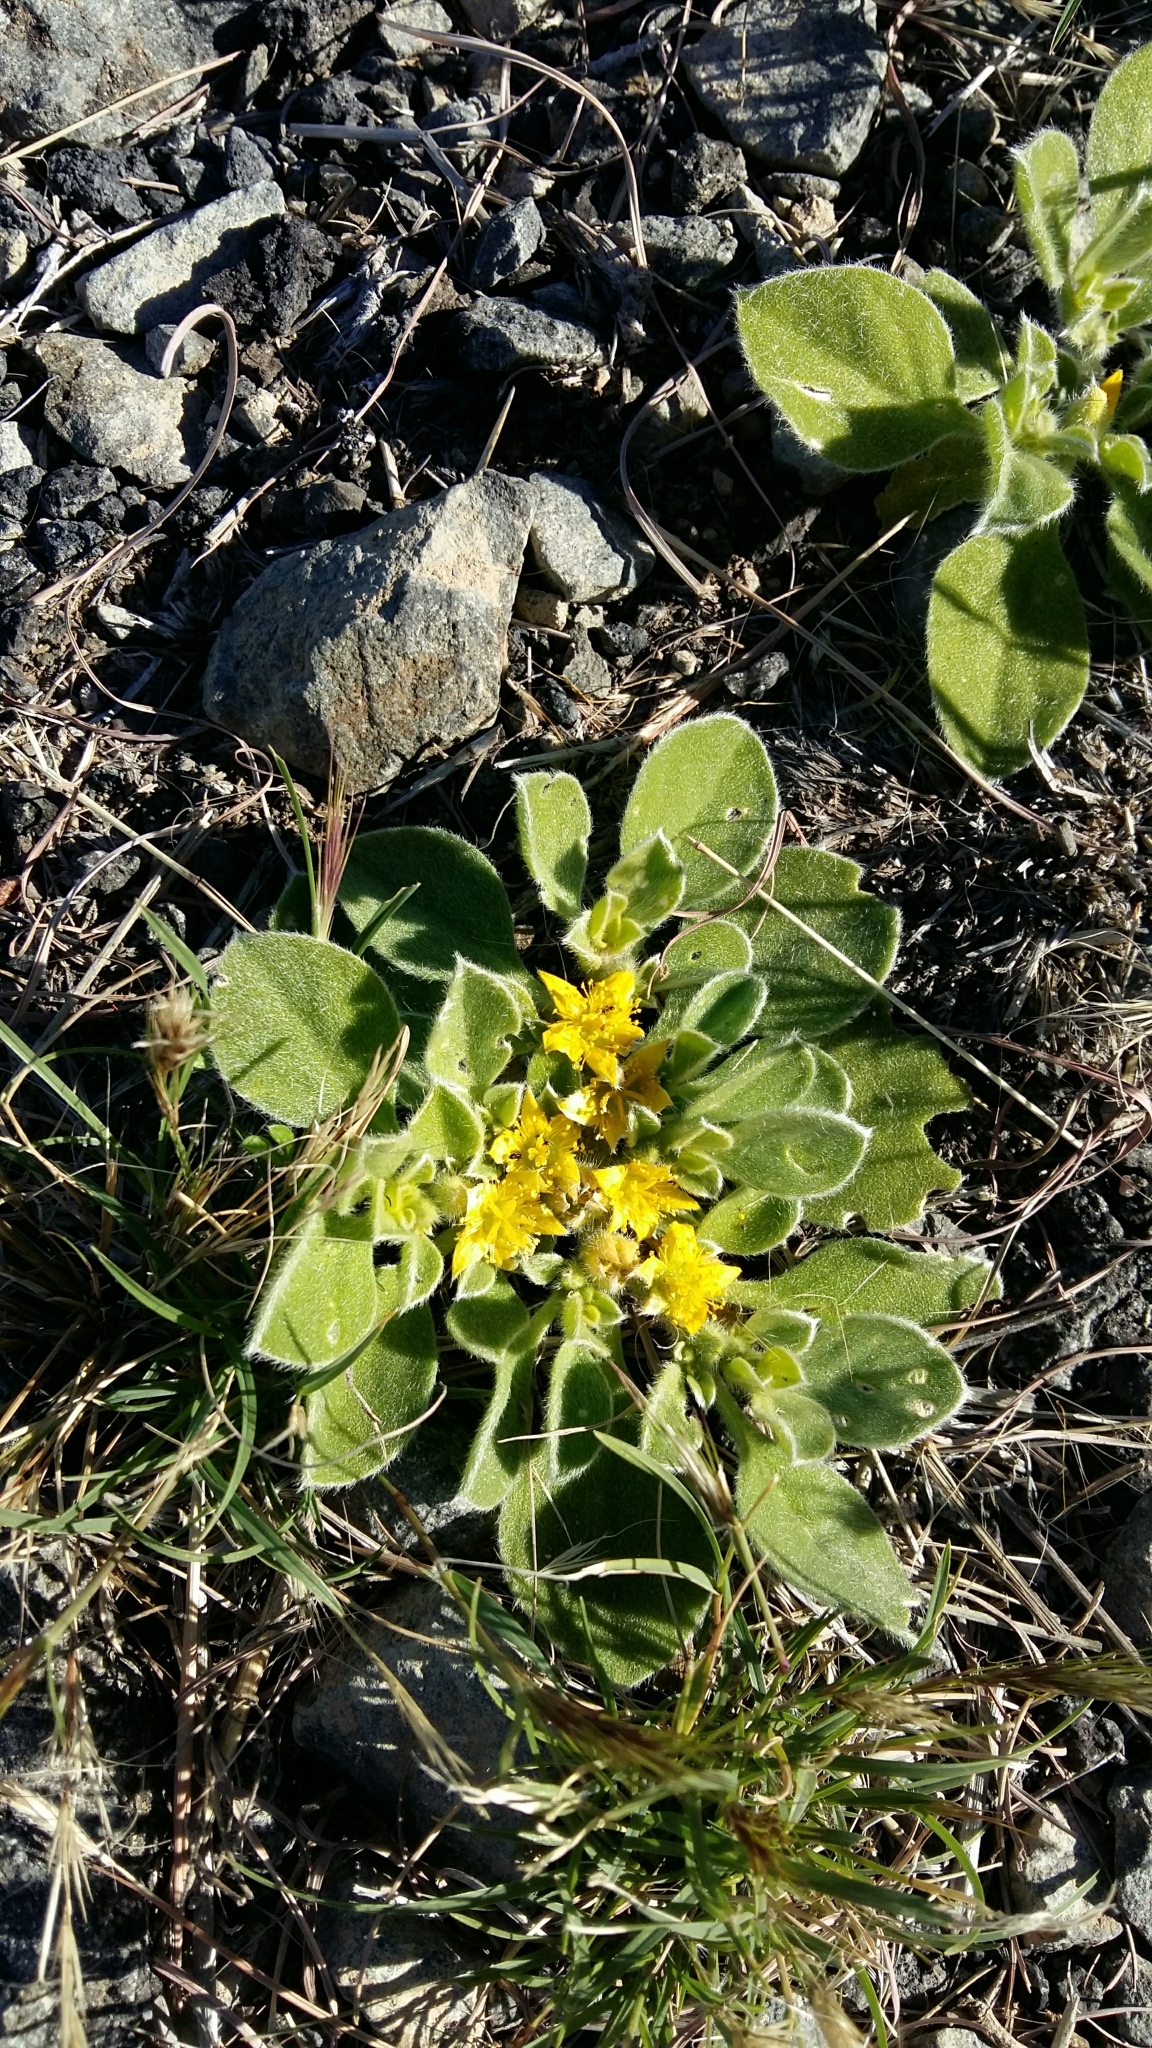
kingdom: Plantae
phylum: Tracheophyta
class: Magnoliopsida
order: Caryophyllales
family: Aizoaceae
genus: Aizoon
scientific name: Aizoon glinoides
